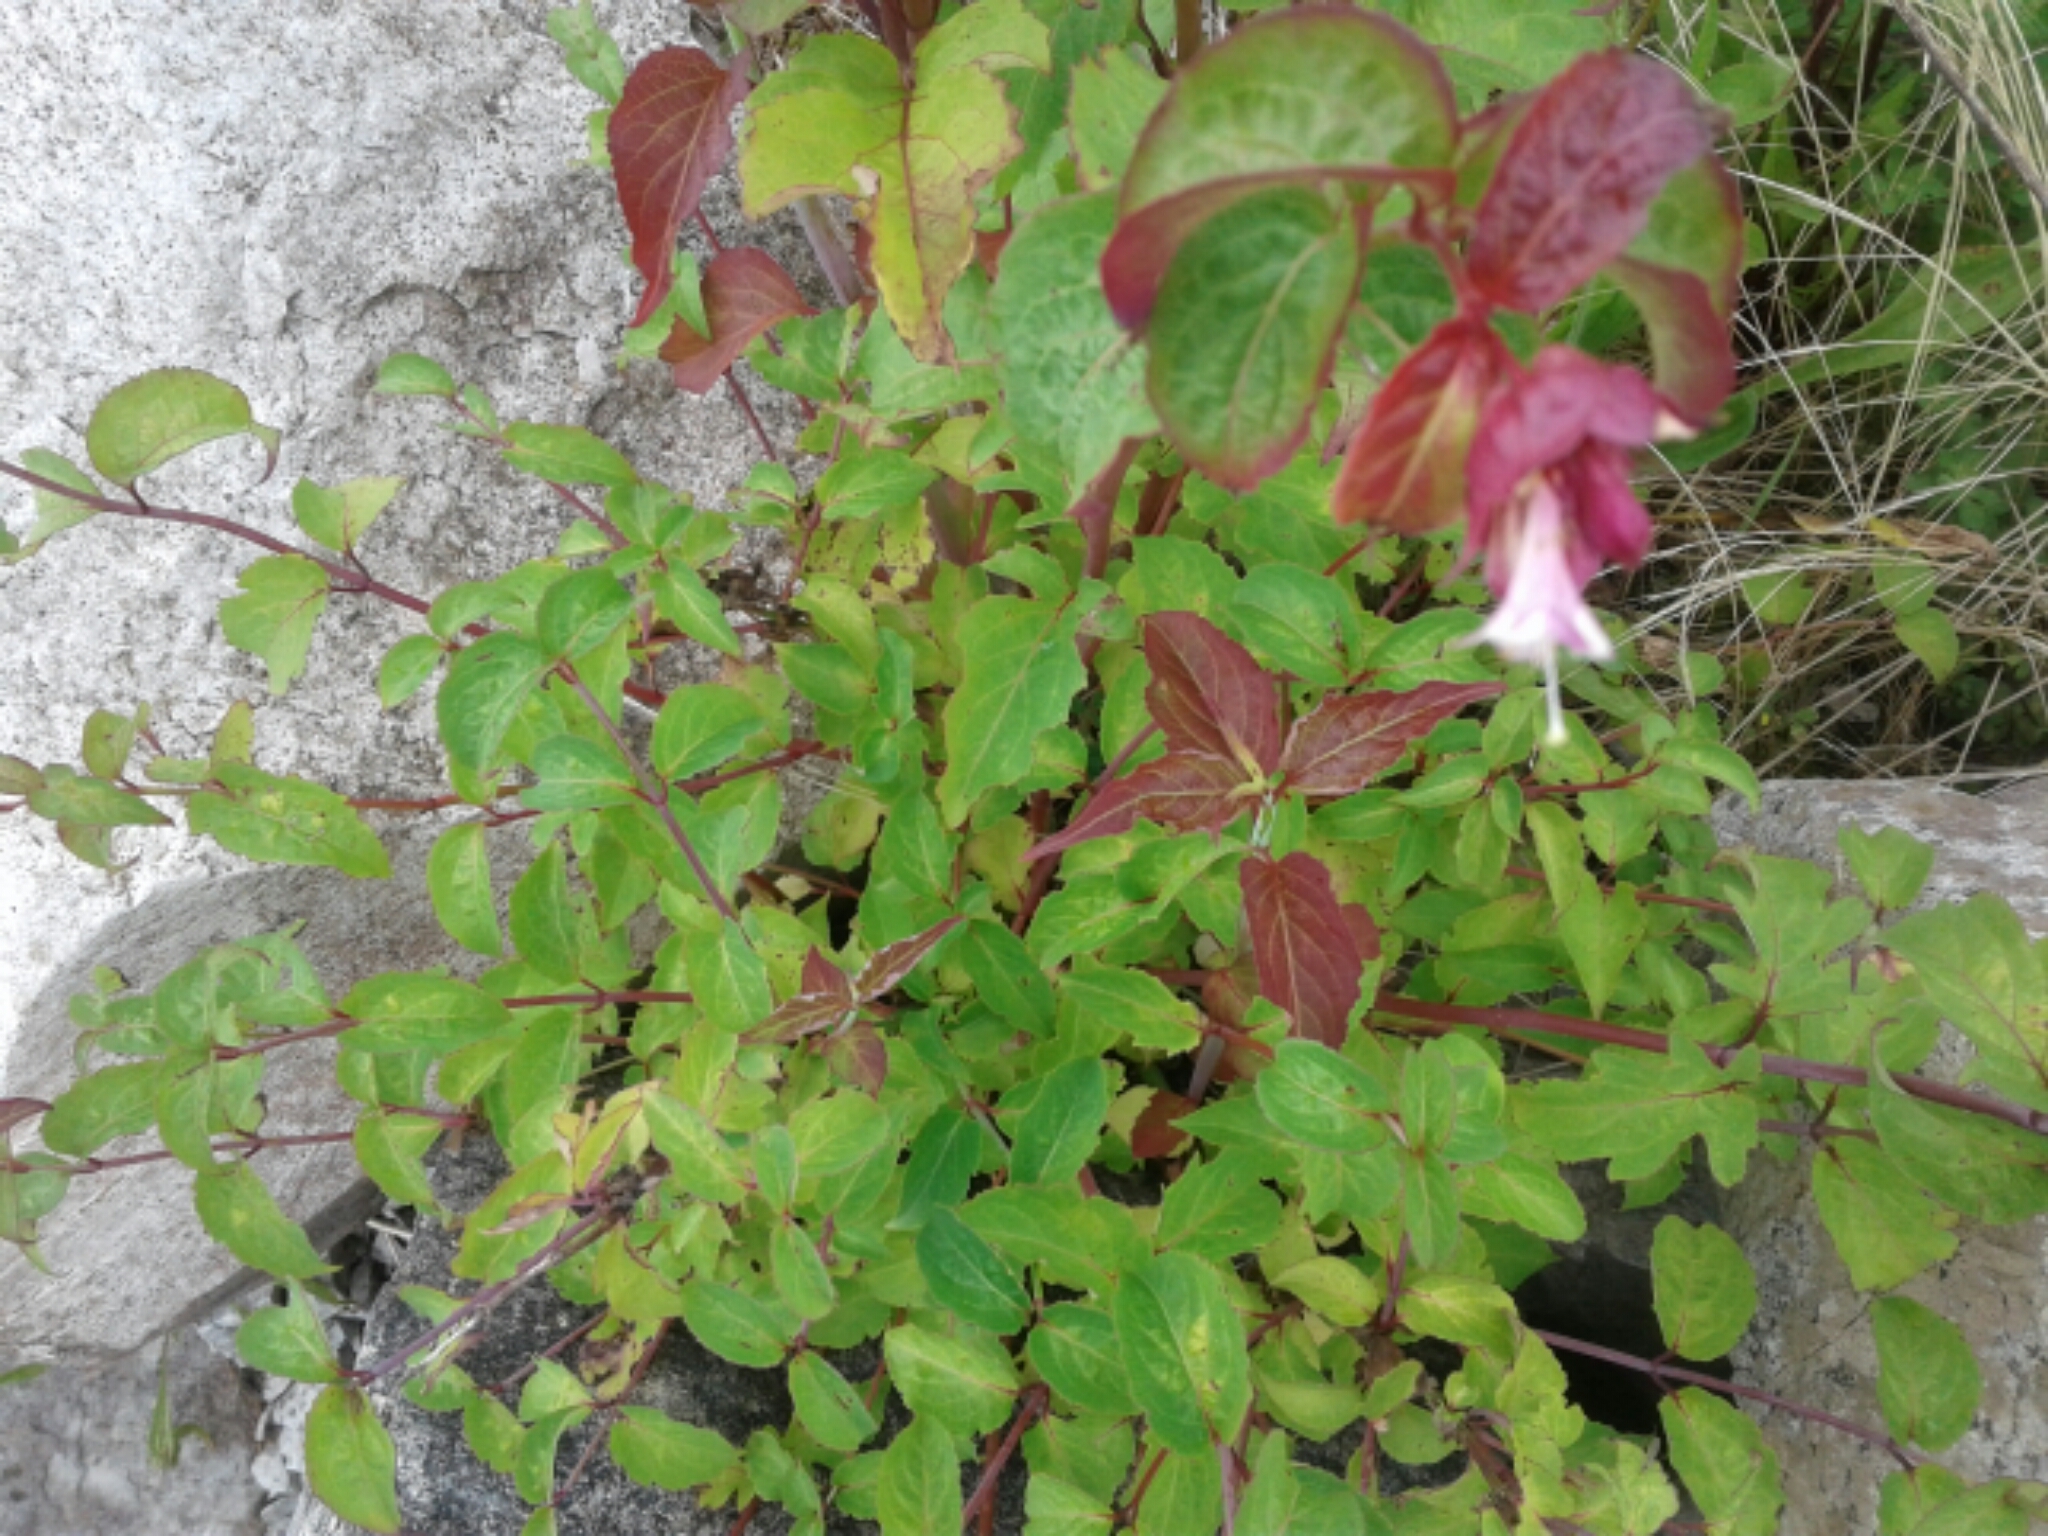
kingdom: Plantae
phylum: Tracheophyta
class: Magnoliopsida
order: Dipsacales
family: Caprifoliaceae
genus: Leycesteria
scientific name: Leycesteria formosa
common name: Himalayan honeysuckle
